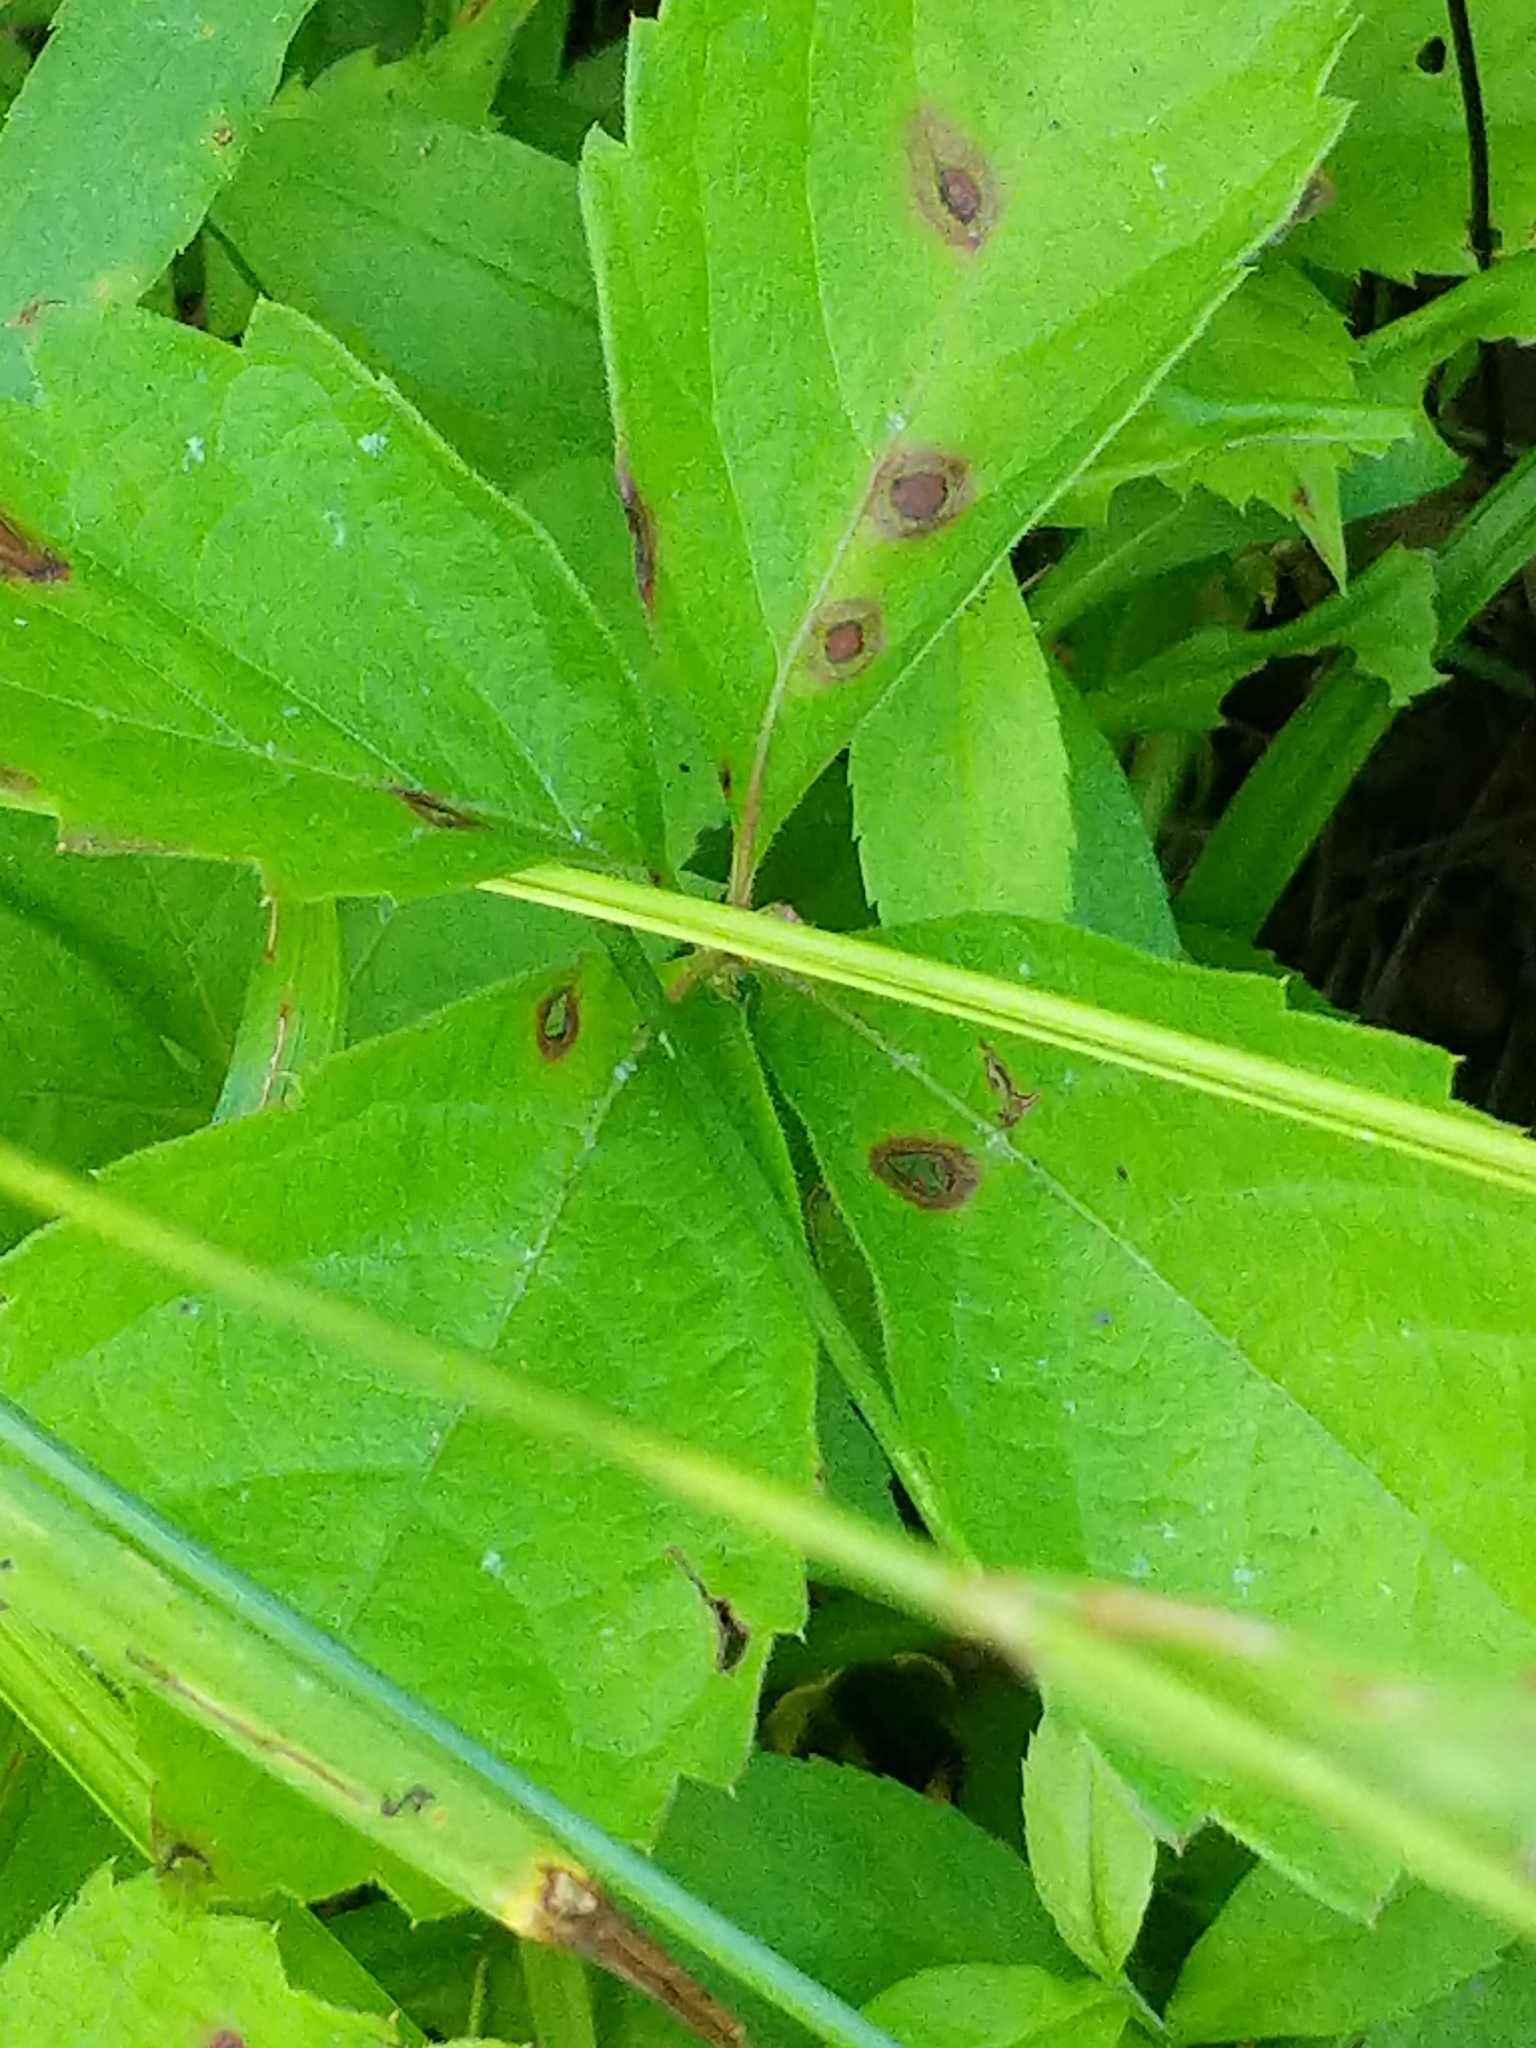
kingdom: Fungi
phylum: Ascomycota
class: Dothideomycetes
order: Botryosphaeriales
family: Phyllostictaceae
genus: Phyllosticta
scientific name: Phyllosticta parthenocissi
